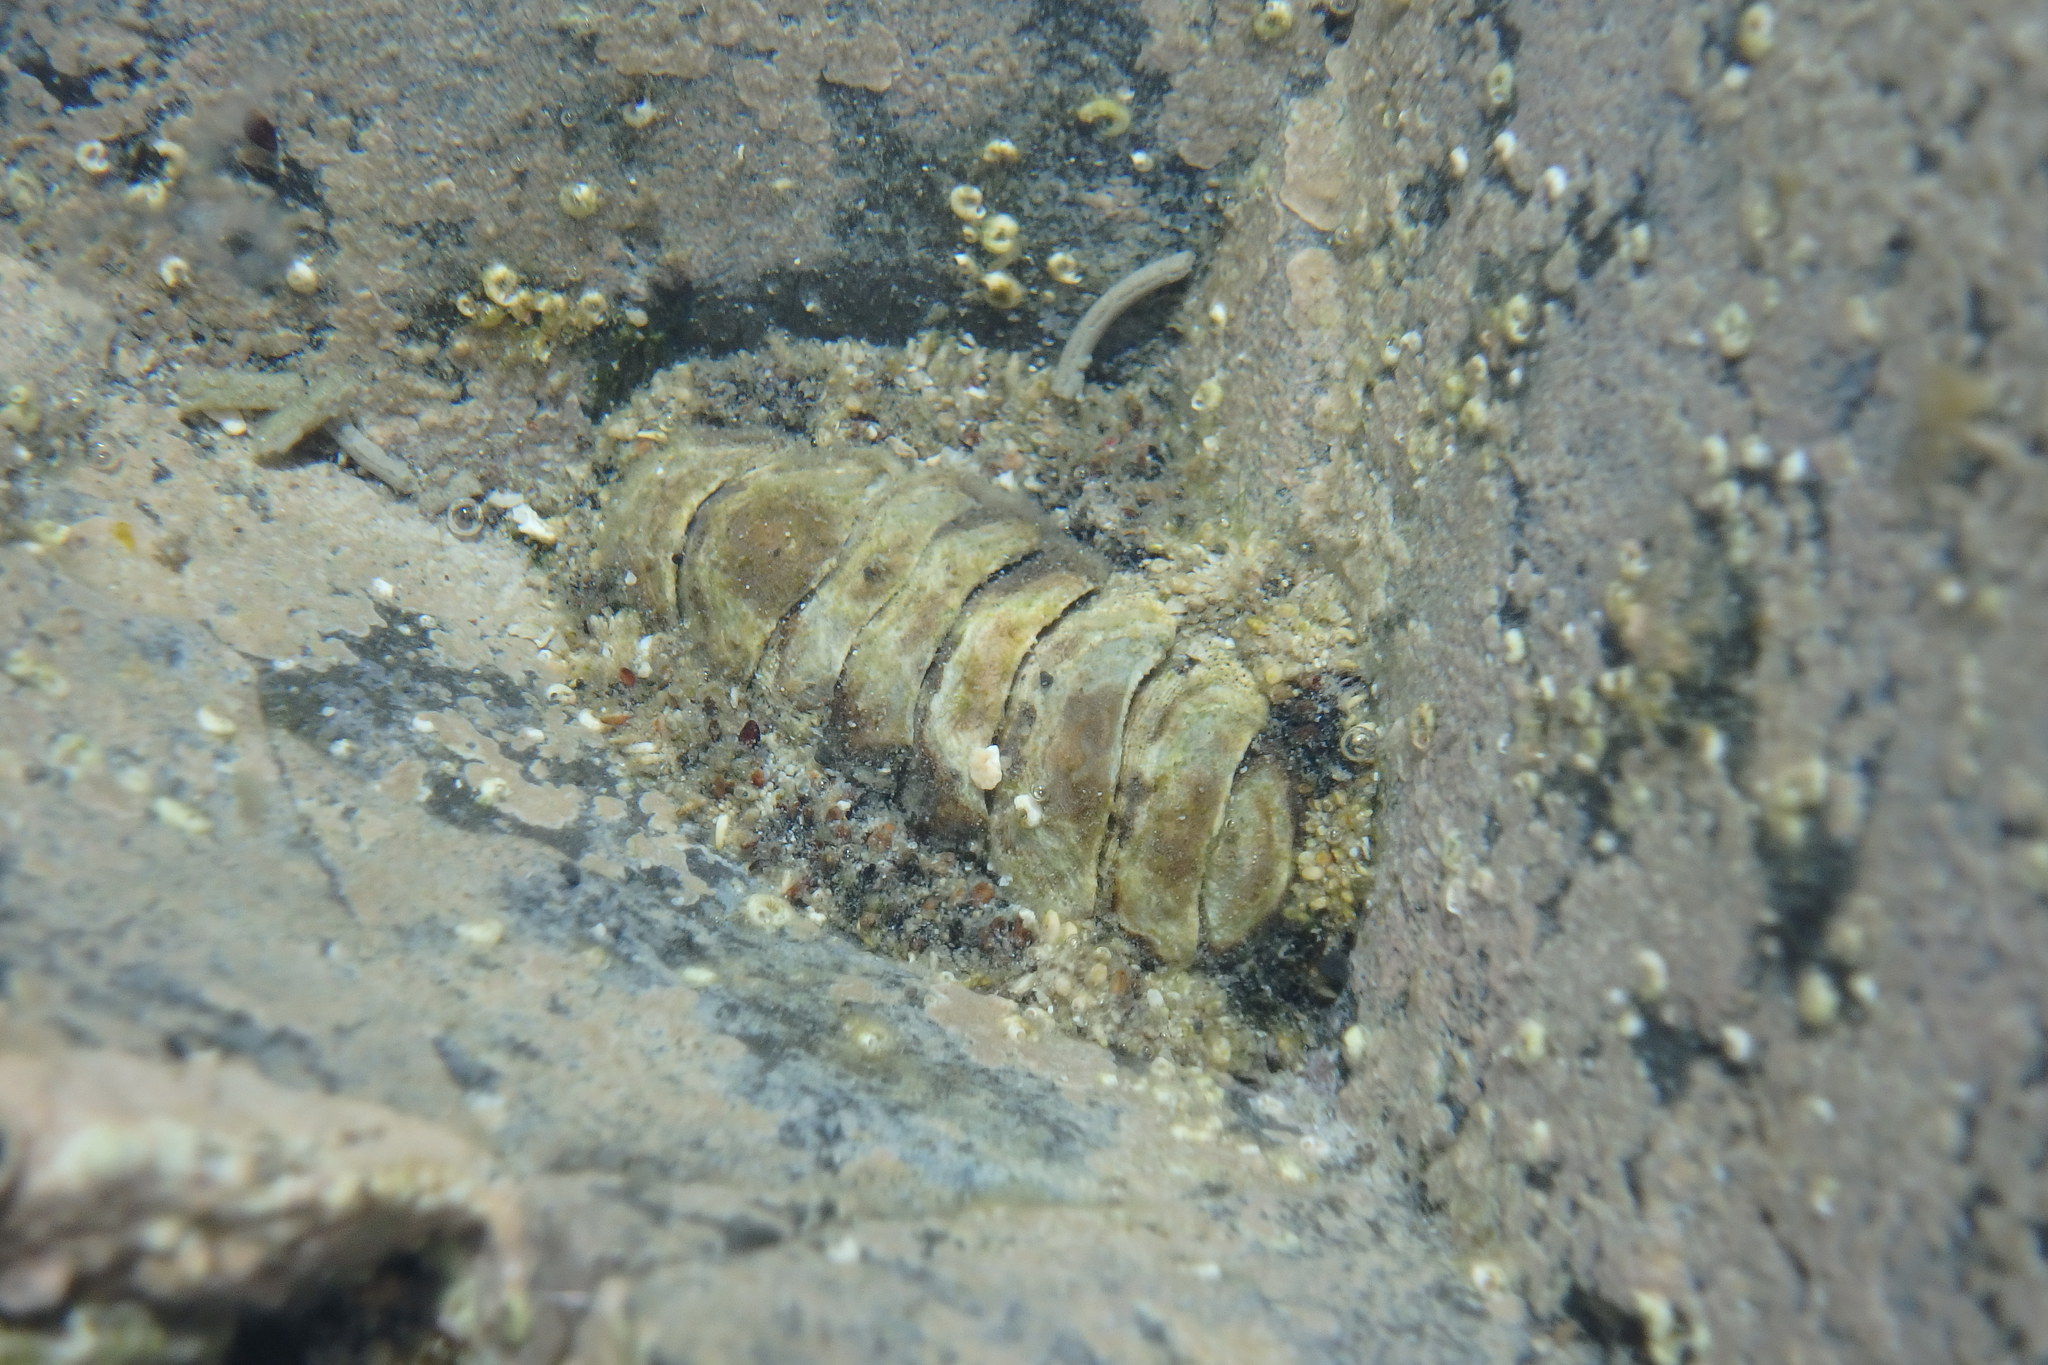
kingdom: Animalia
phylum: Mollusca
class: Polyplacophora
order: Chitonida
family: Chitonidae
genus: Liolophura
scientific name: Liolophura japonica
